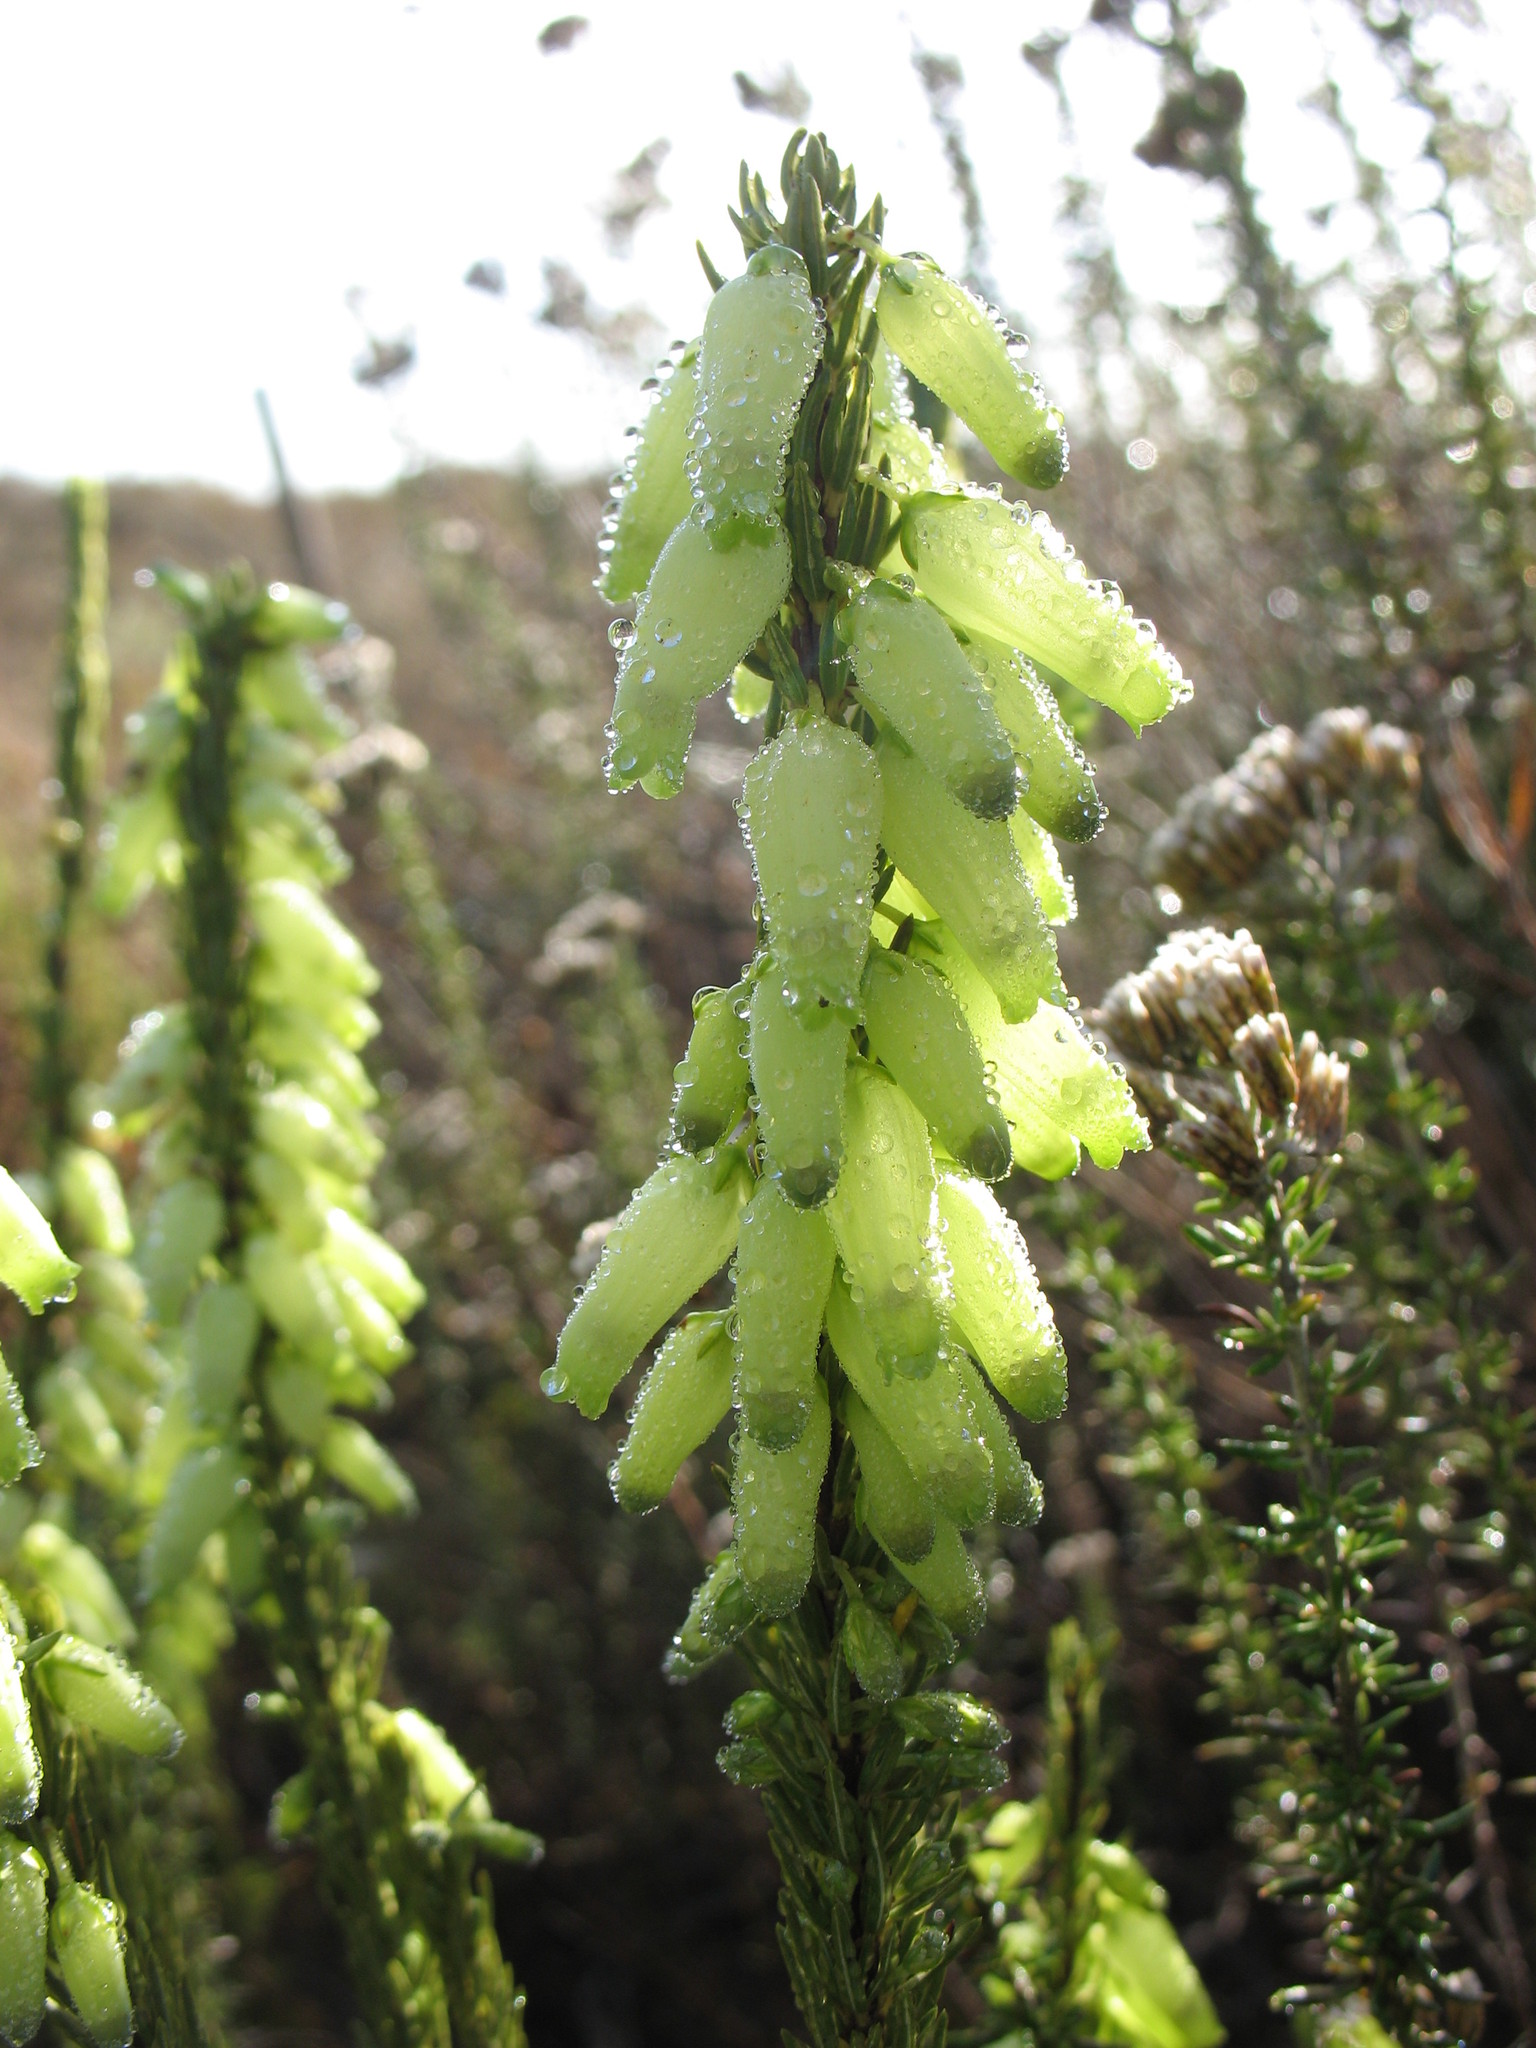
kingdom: Plantae
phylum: Tracheophyta
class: Magnoliopsida
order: Ericales
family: Ericaceae
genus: Erica
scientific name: Erica penduliflora
